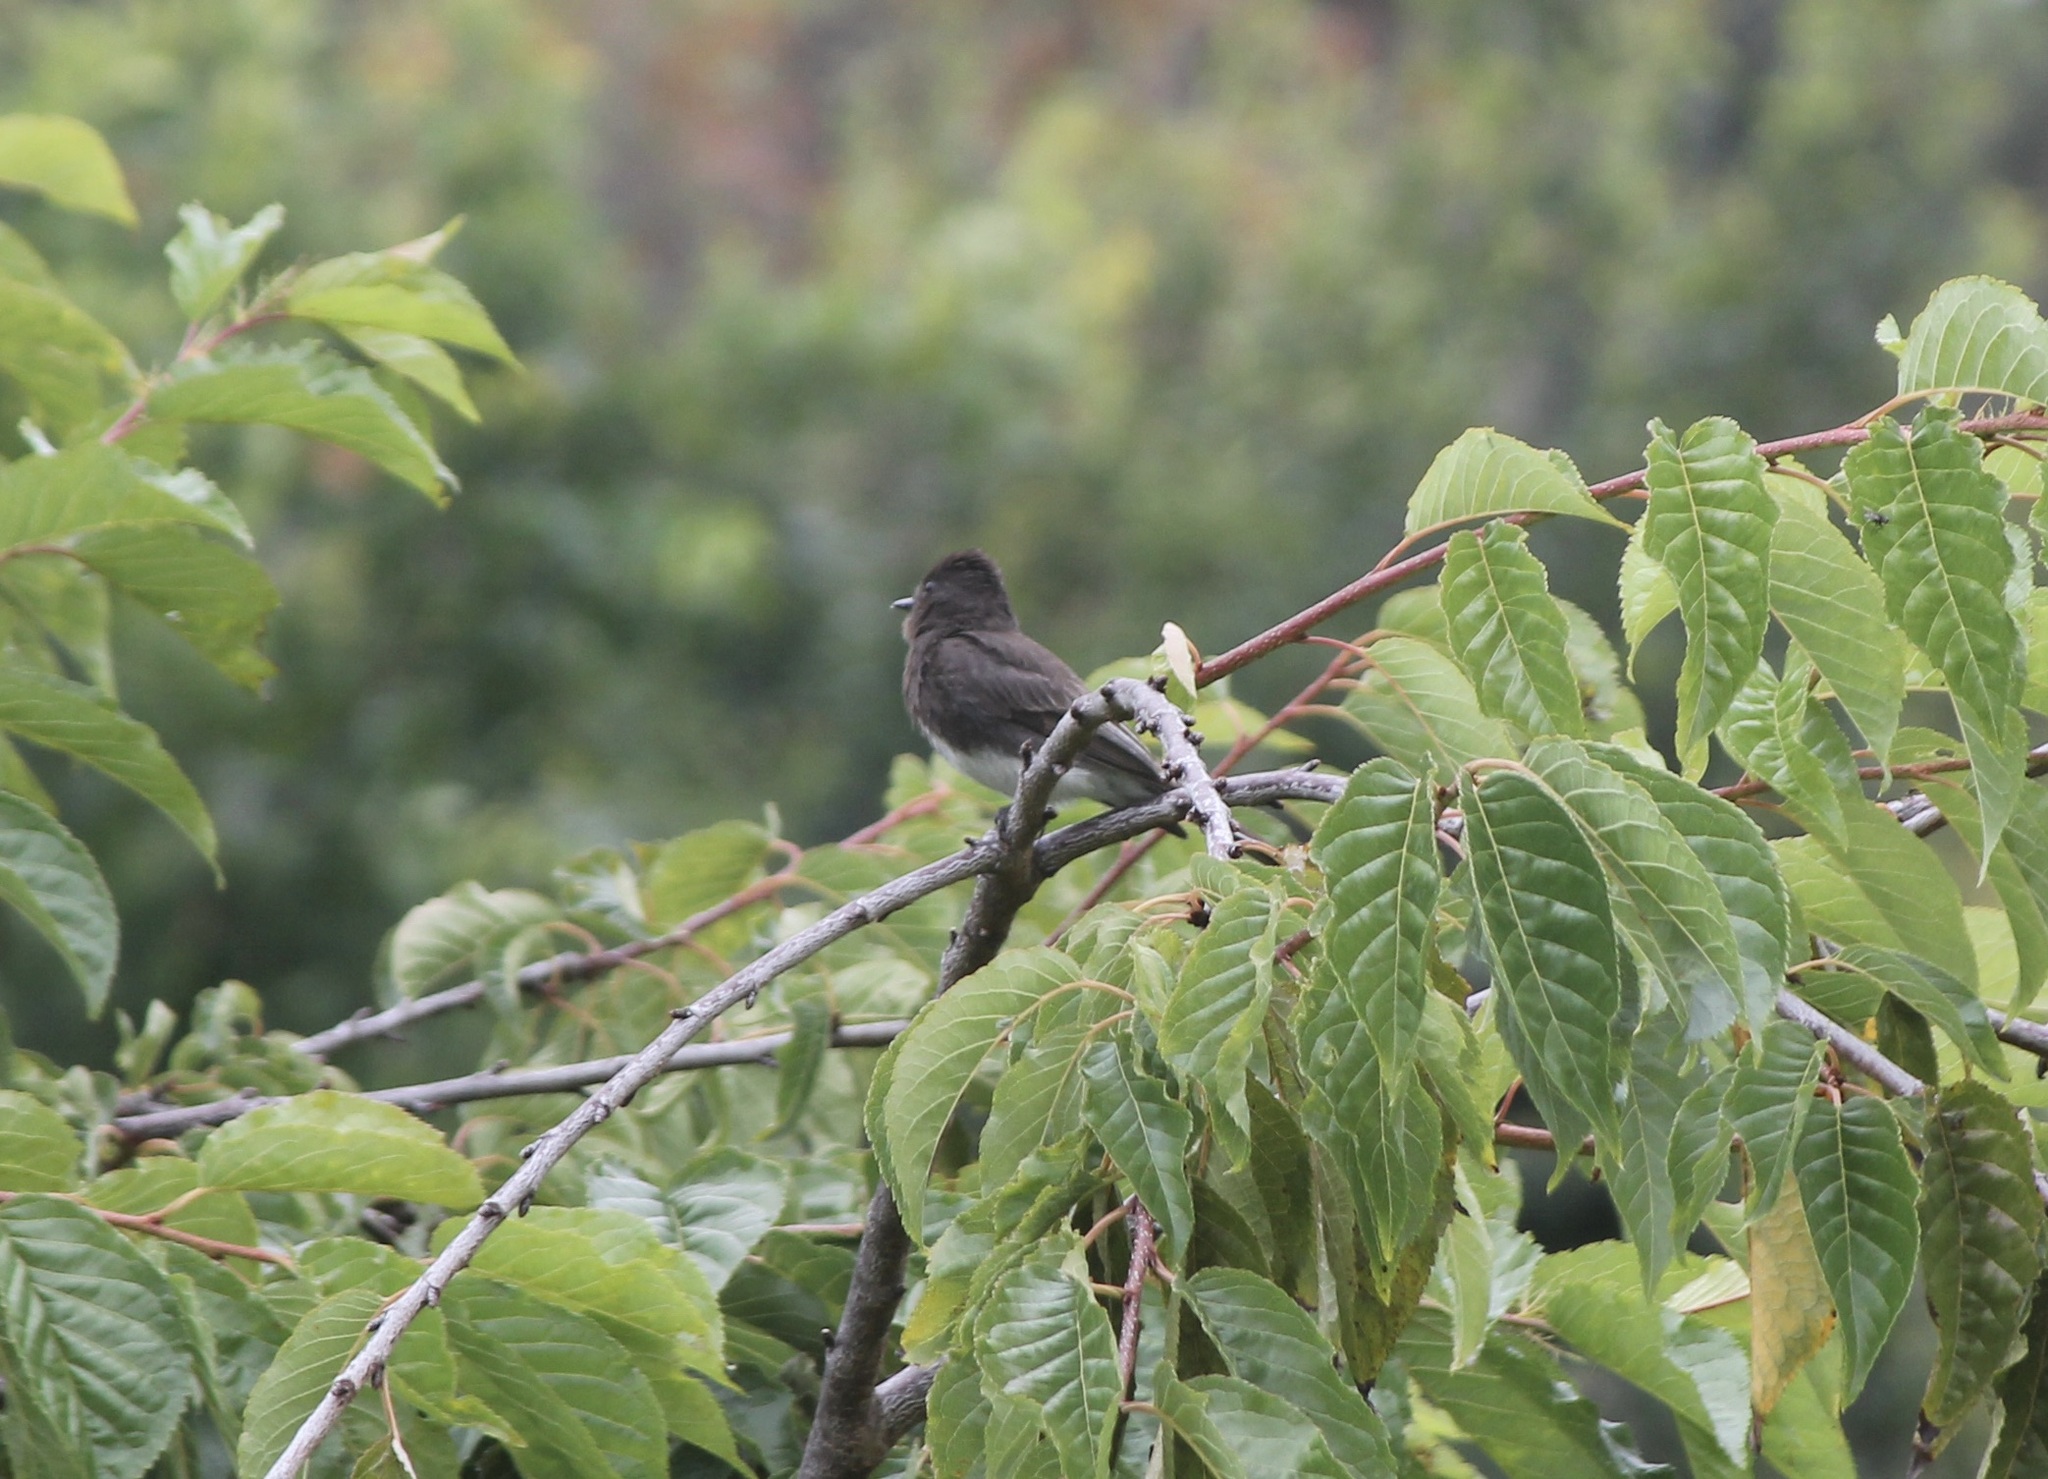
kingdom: Animalia
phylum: Chordata
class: Aves
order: Passeriformes
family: Tyrannidae
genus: Sayornis
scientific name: Sayornis nigricans
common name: Black phoebe
